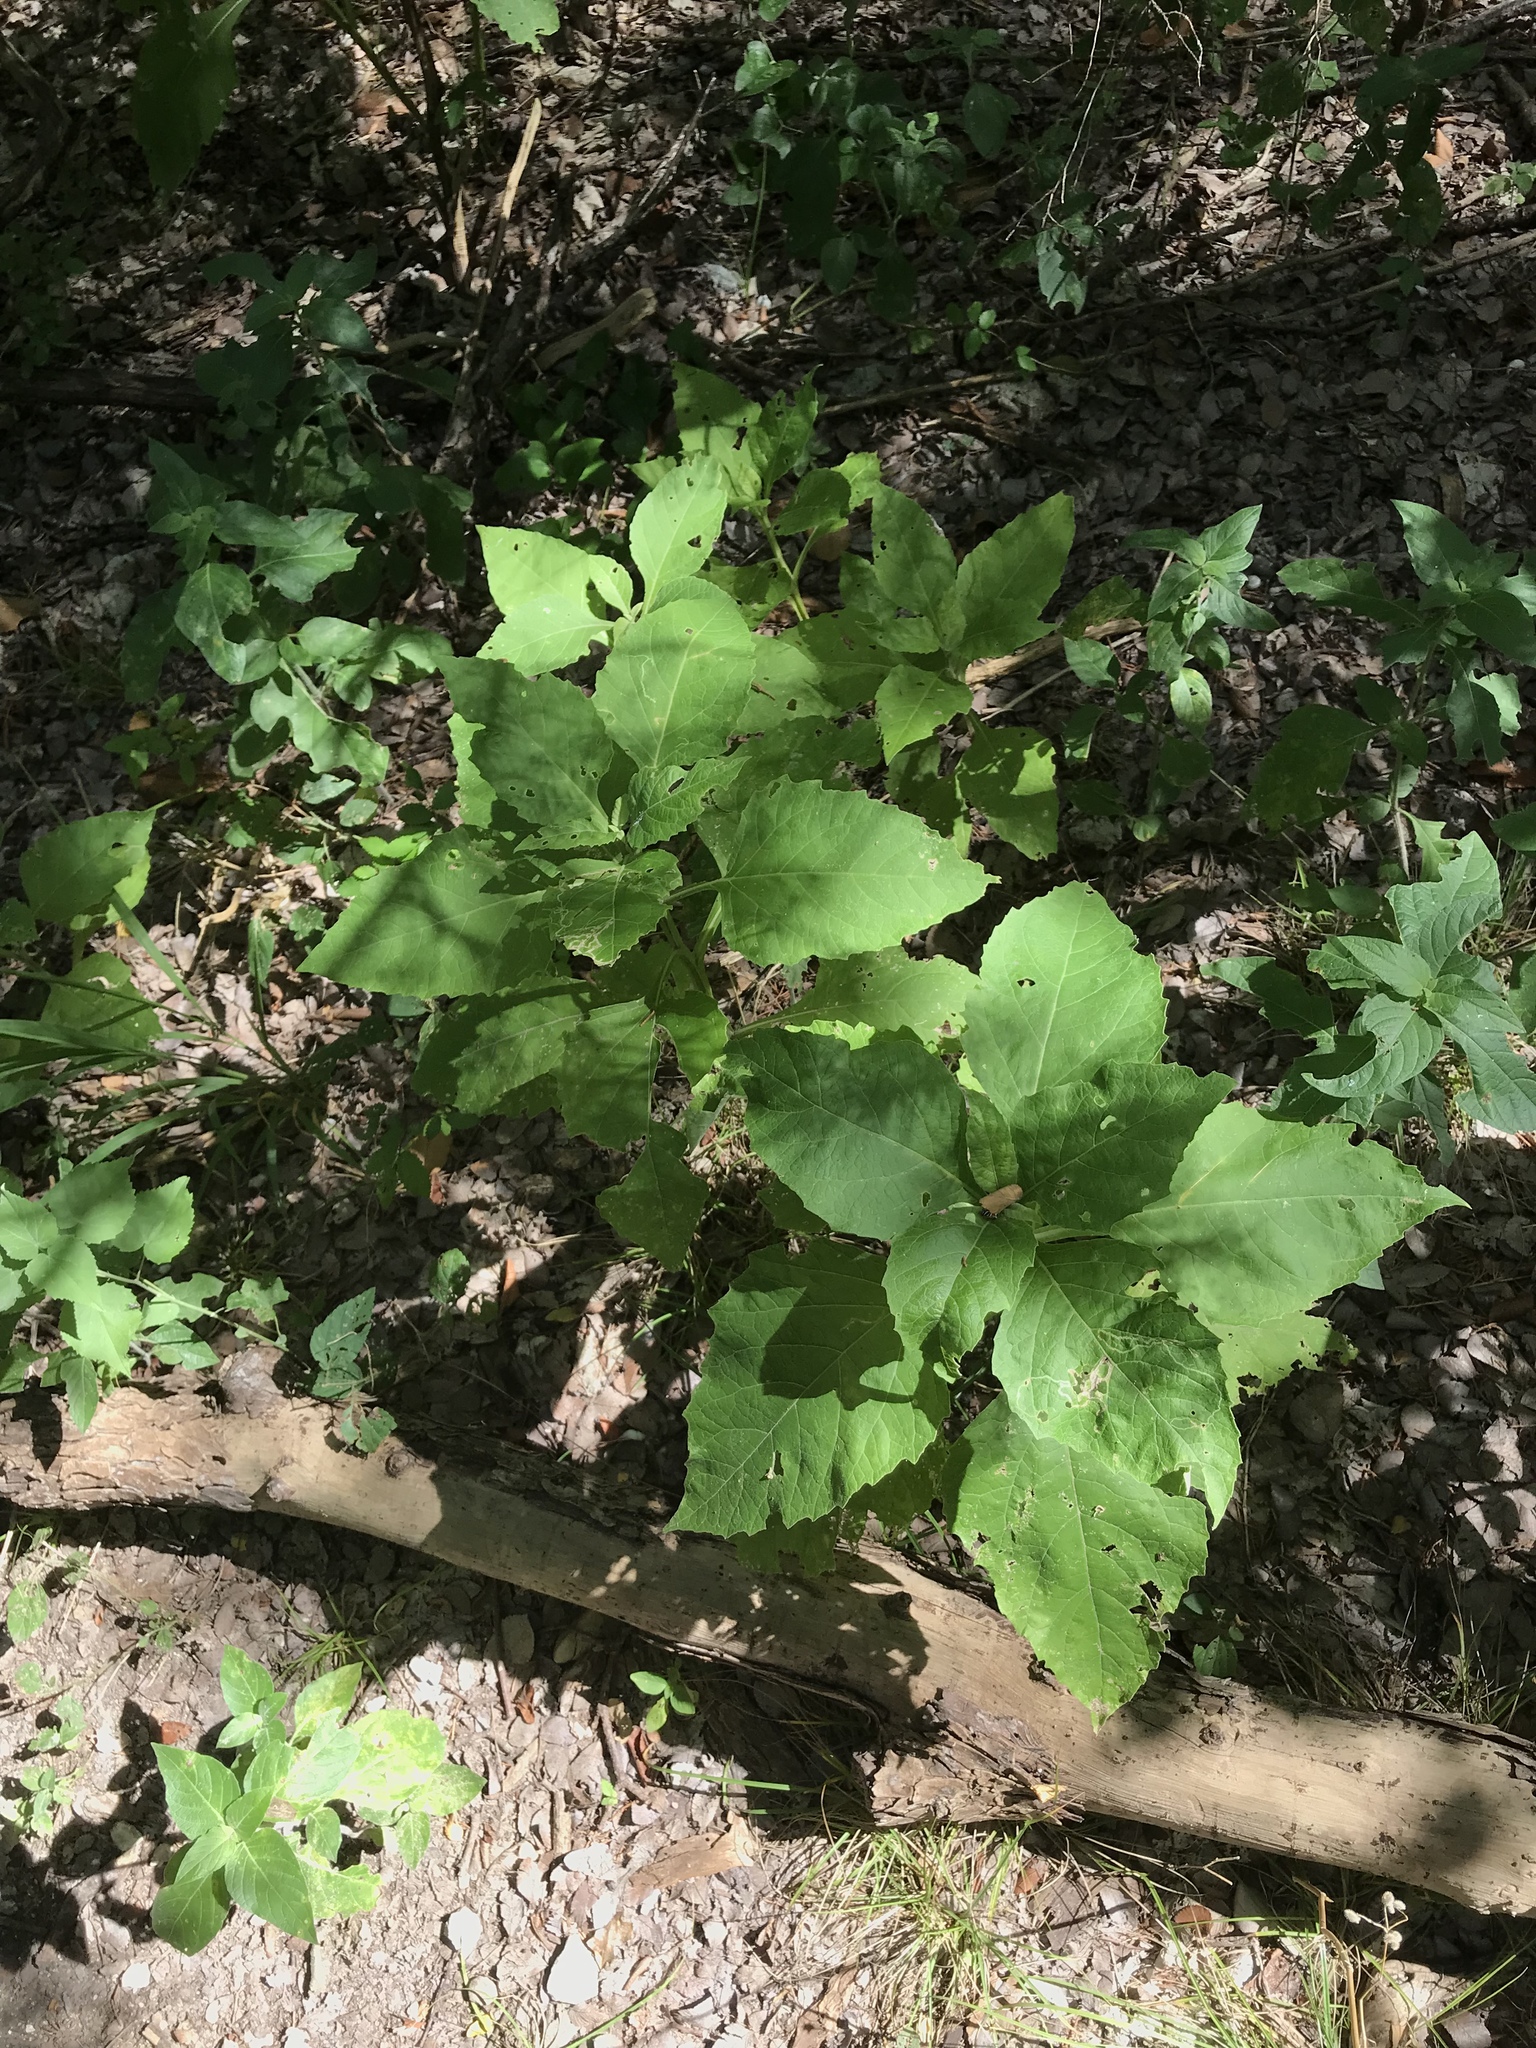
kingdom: Plantae
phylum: Tracheophyta
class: Magnoliopsida
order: Asterales
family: Asteraceae
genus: Verbesina
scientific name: Verbesina virginica
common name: Frostweed
